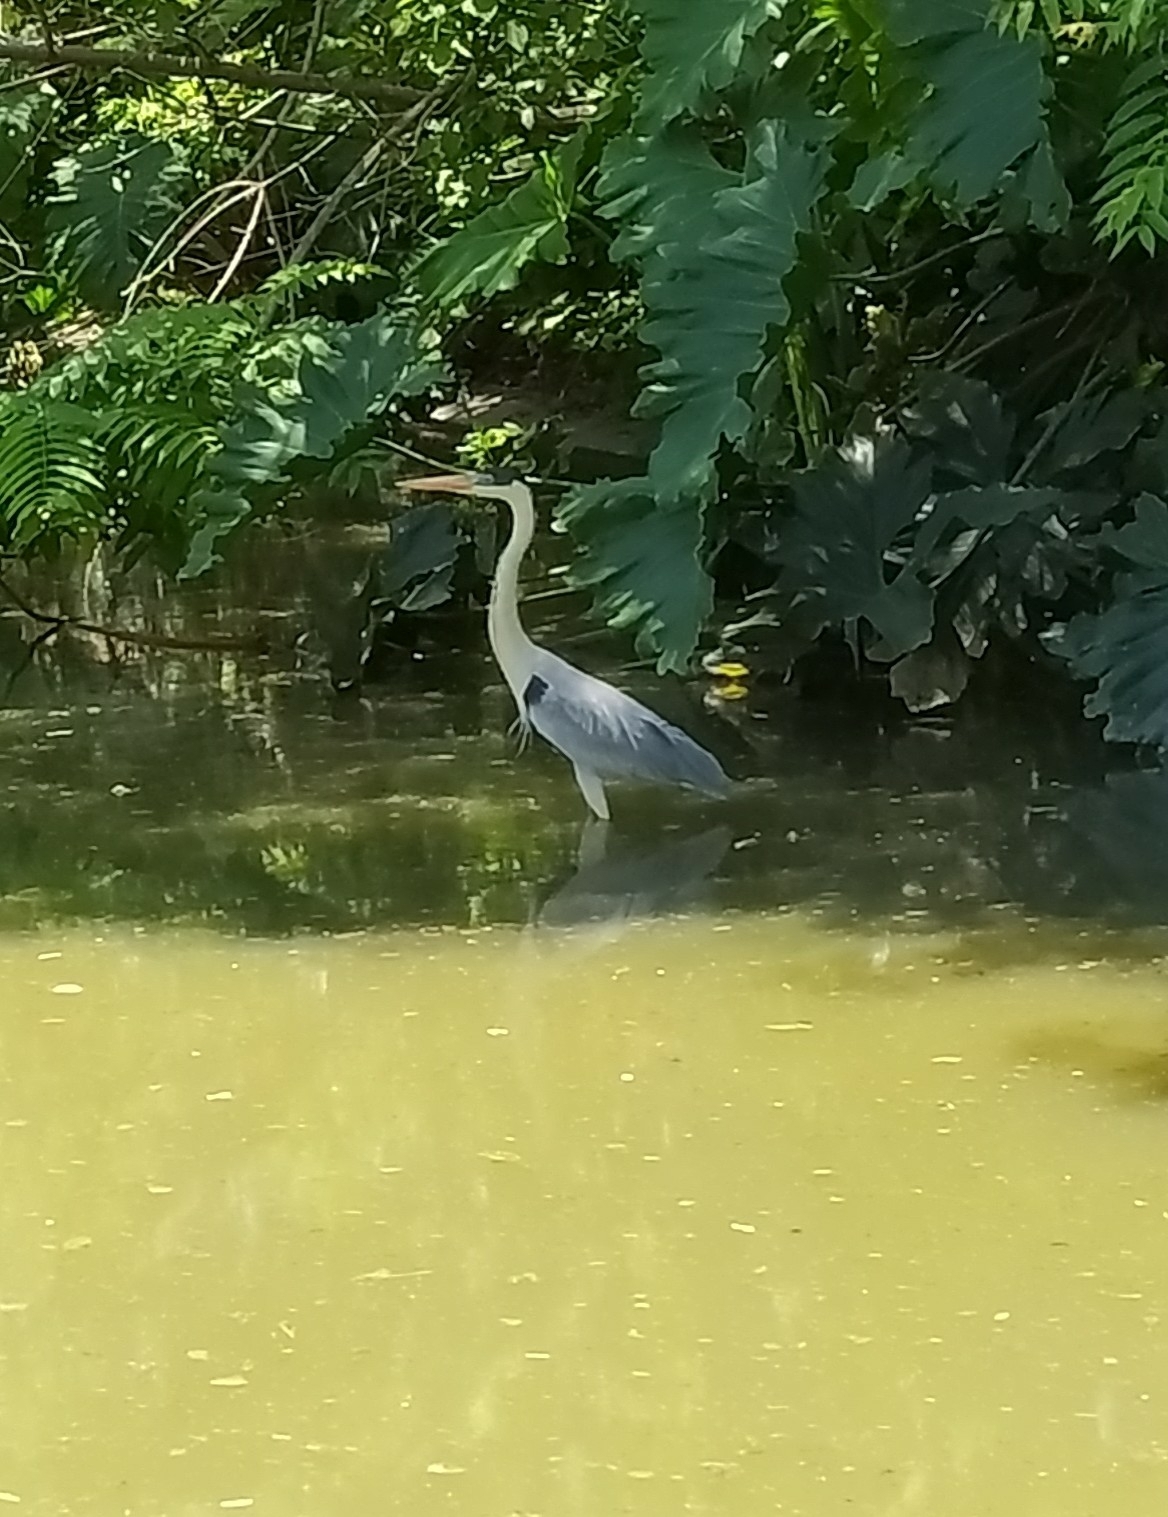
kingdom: Animalia
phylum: Chordata
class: Aves
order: Pelecaniformes
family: Ardeidae
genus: Ardea
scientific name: Ardea cocoi
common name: Cocoi heron
